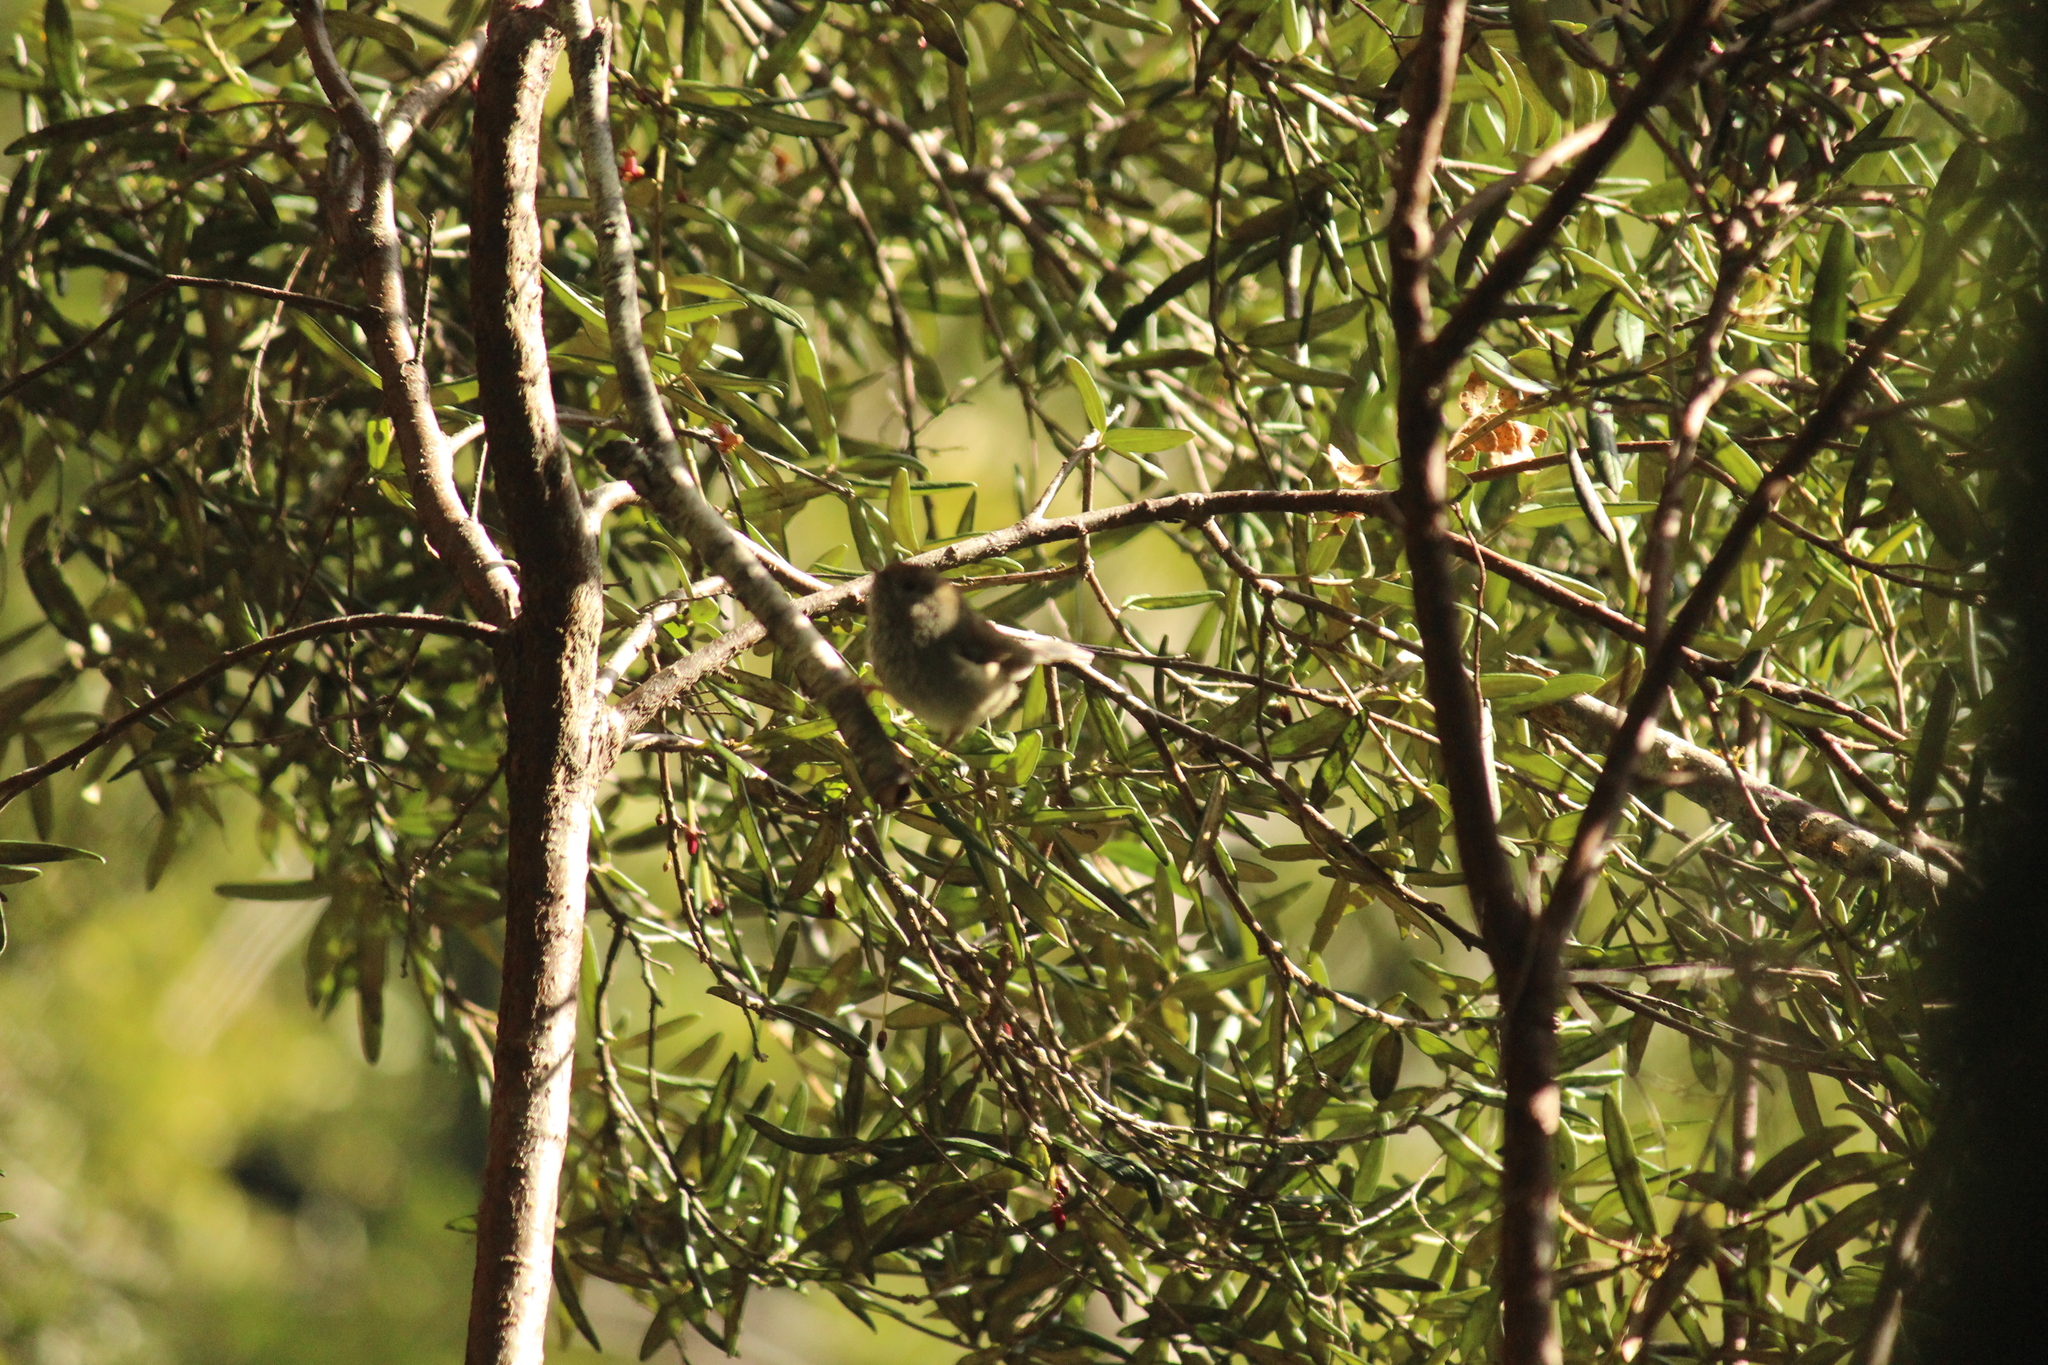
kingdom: Animalia
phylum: Chordata
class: Aves
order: Passeriformes
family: Acanthizidae
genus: Acanthiza
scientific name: Acanthiza ewingii
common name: Tasmanian thornbill
